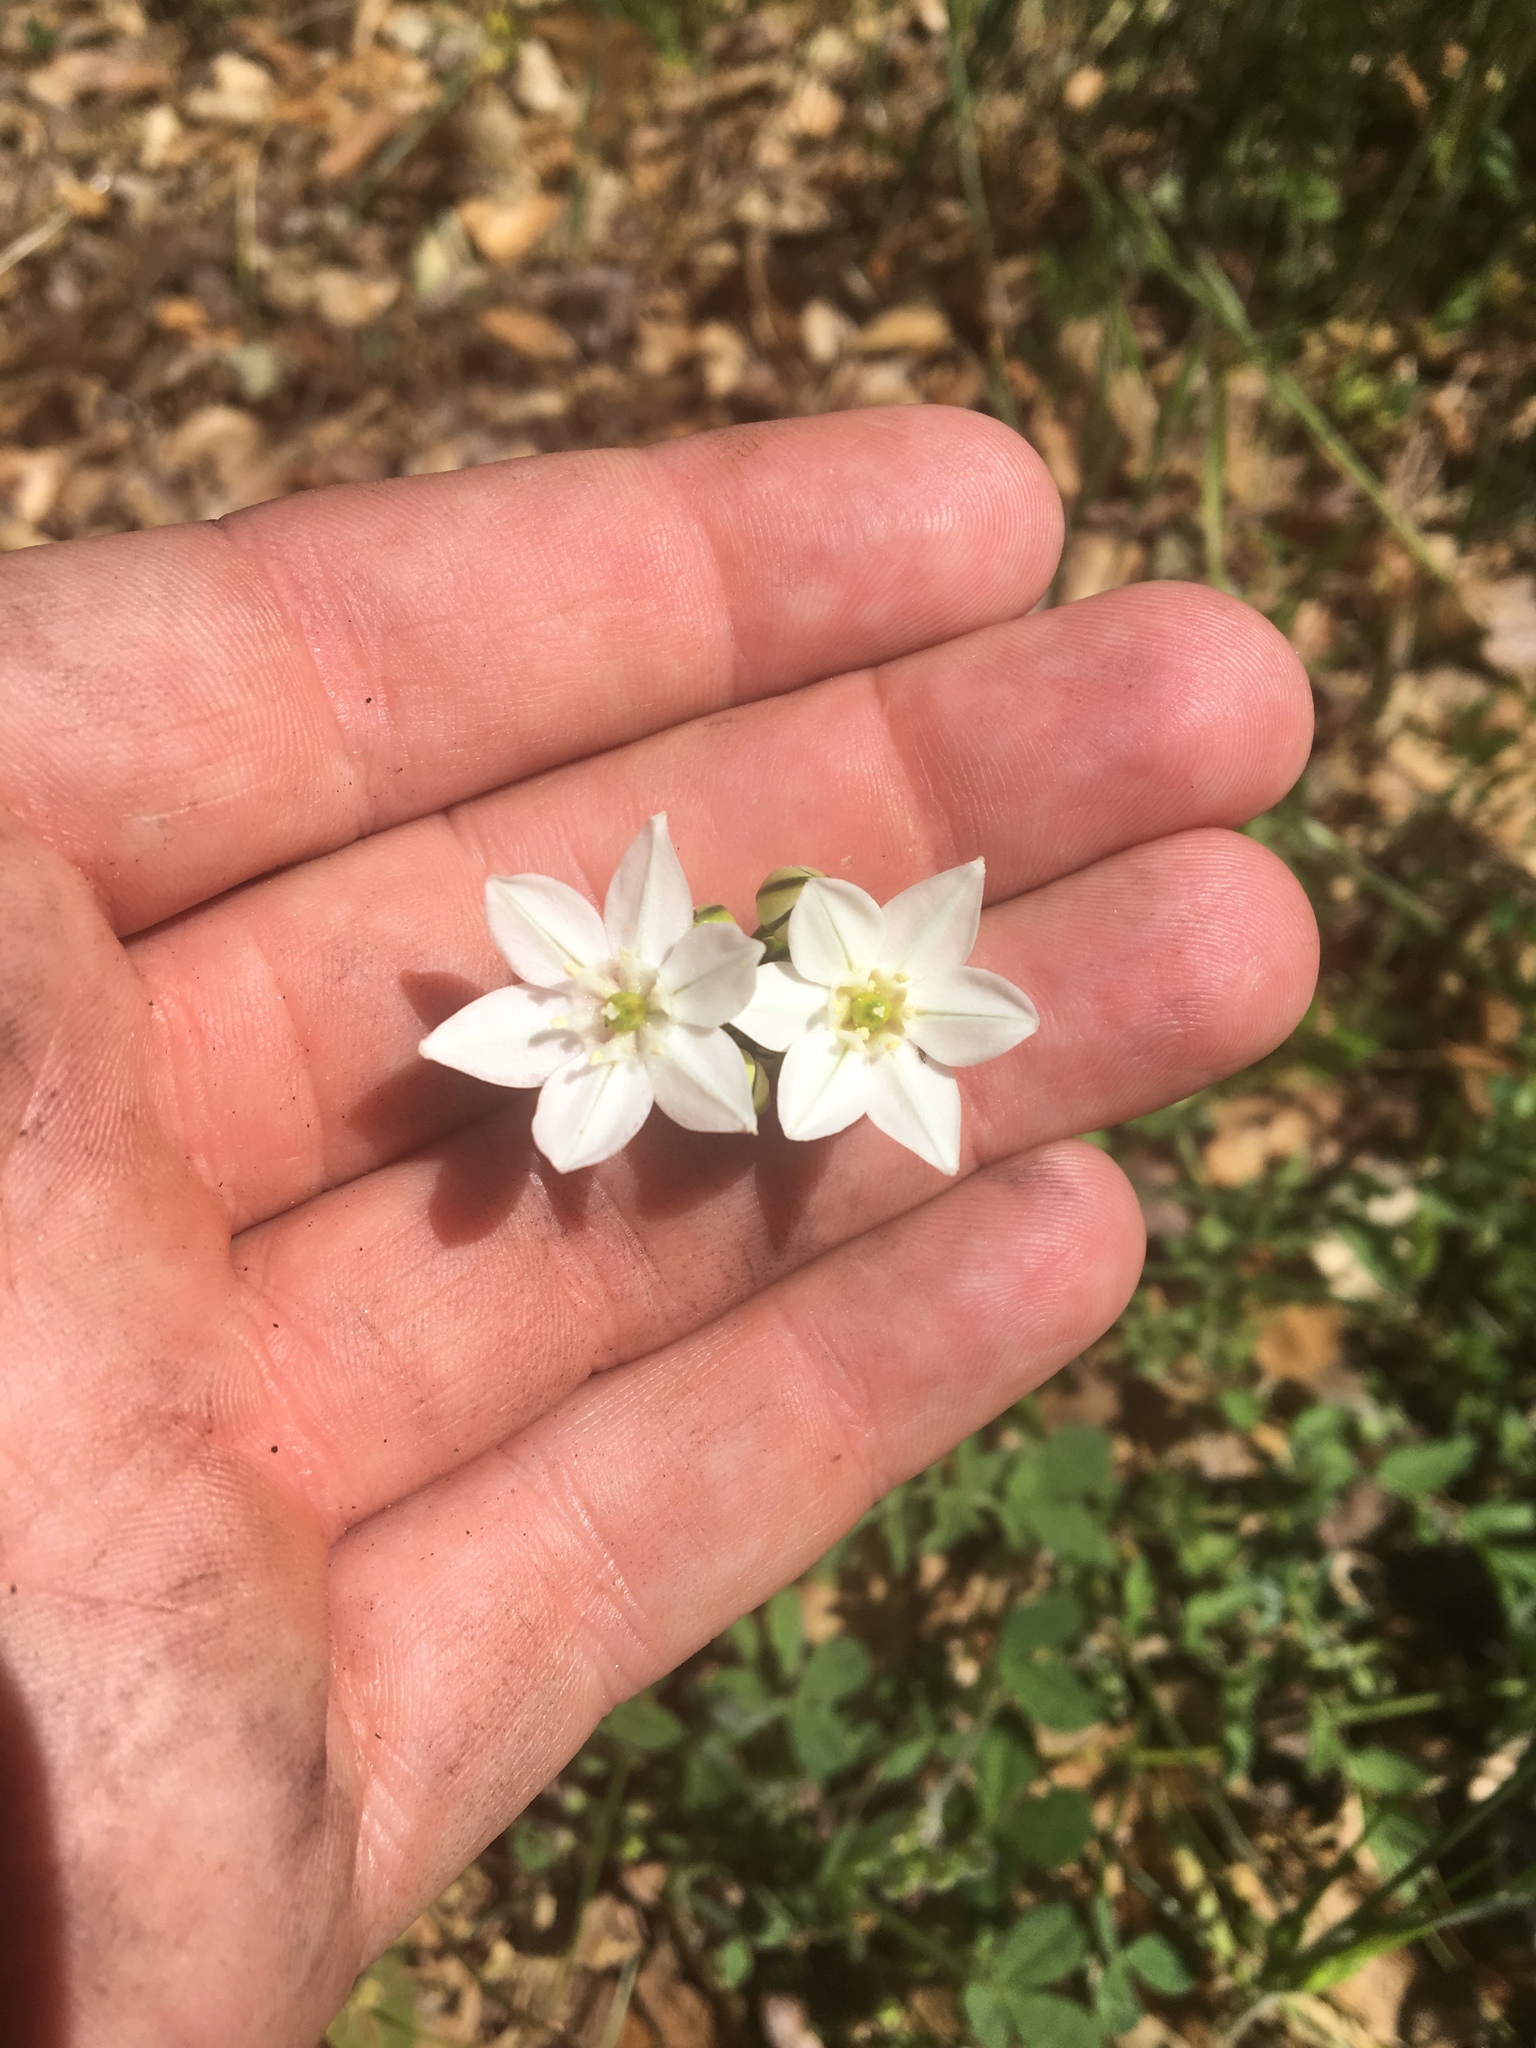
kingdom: Plantae
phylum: Tracheophyta
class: Liliopsida
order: Asparagales
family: Asparagaceae
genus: Triteleia
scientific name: Triteleia hyacinthina
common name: White brodiaea
